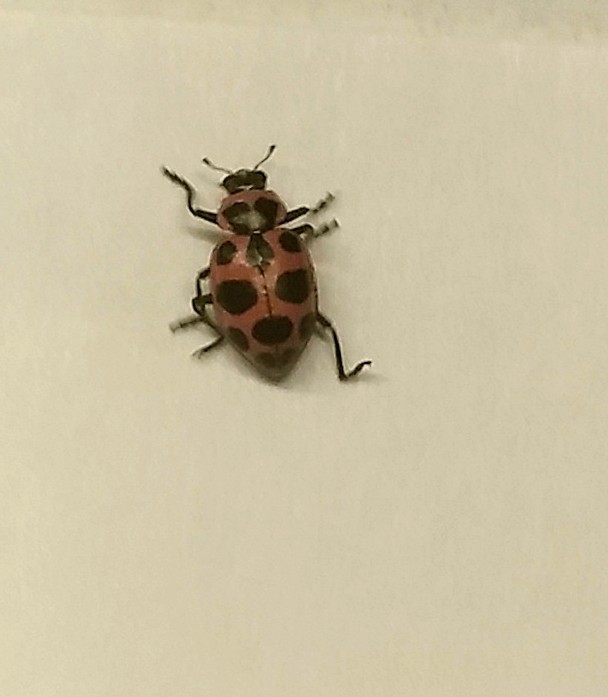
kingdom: Animalia
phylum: Arthropoda
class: Insecta
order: Coleoptera
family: Coccinellidae
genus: Coleomegilla
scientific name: Coleomegilla maculata
